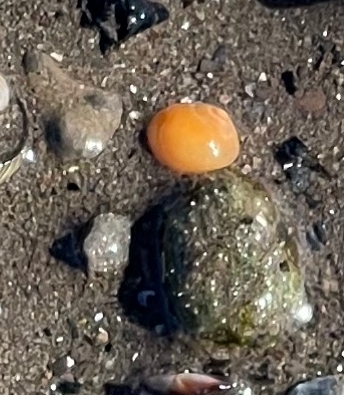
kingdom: Animalia
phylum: Mollusca
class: Gastropoda
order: Littorinimorpha
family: Littorinidae
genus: Littorina
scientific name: Littorina obtusata
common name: Flat periwinkle
